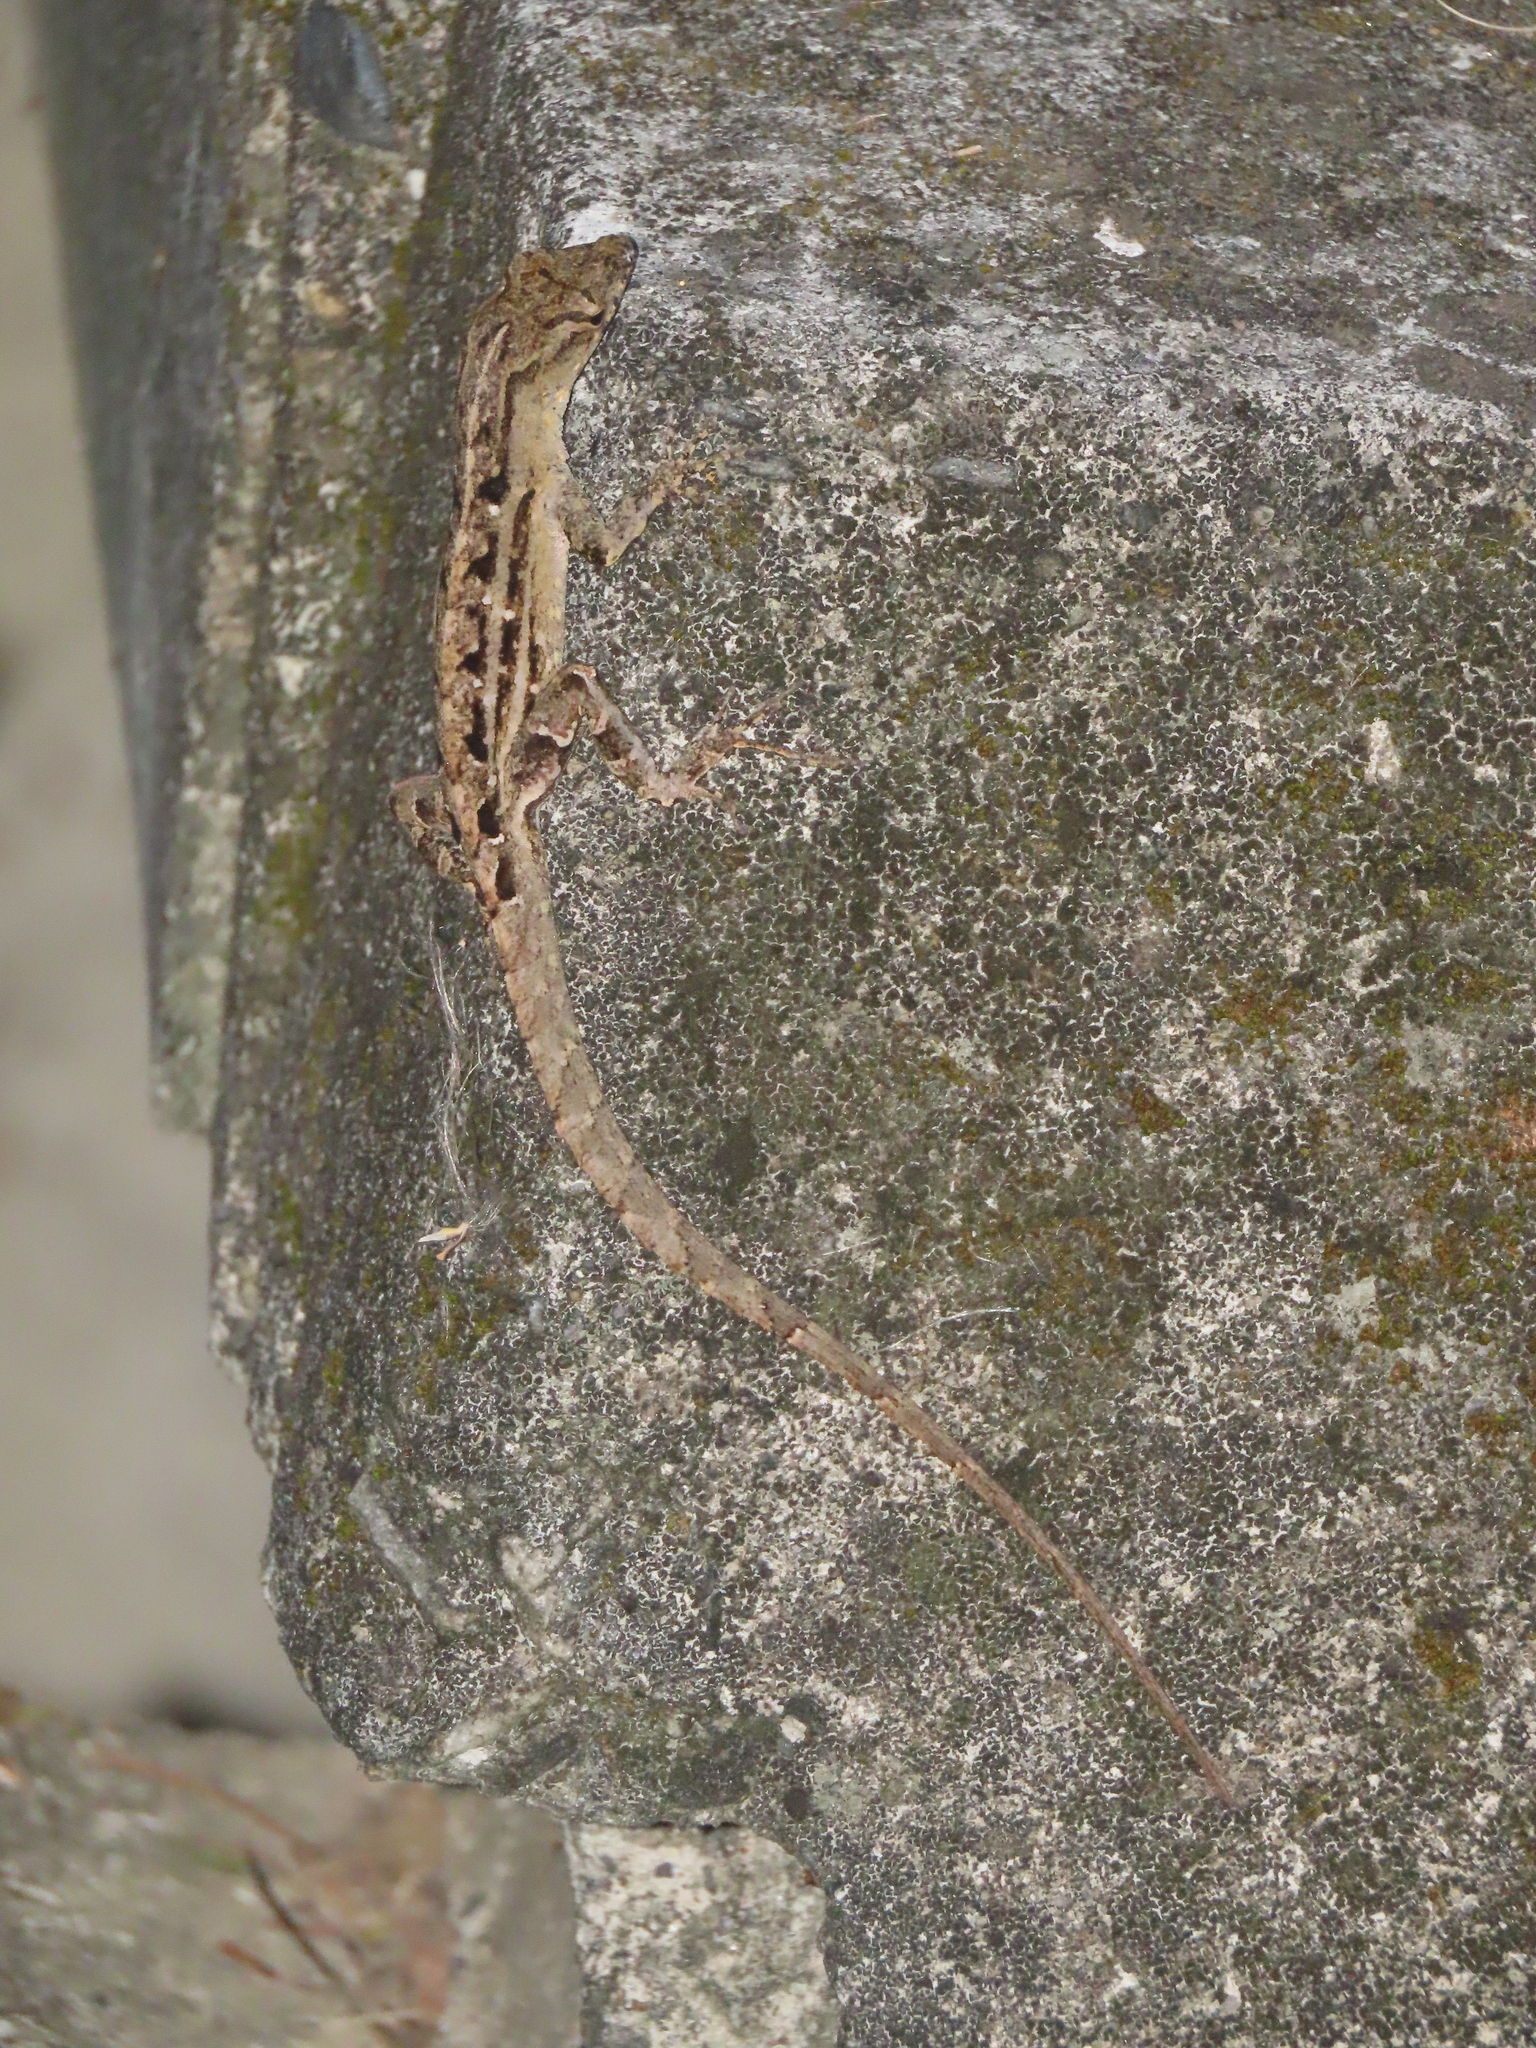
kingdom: Animalia
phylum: Chordata
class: Squamata
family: Dactyloidae
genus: Anolis
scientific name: Anolis sagrei
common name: Brown anole
